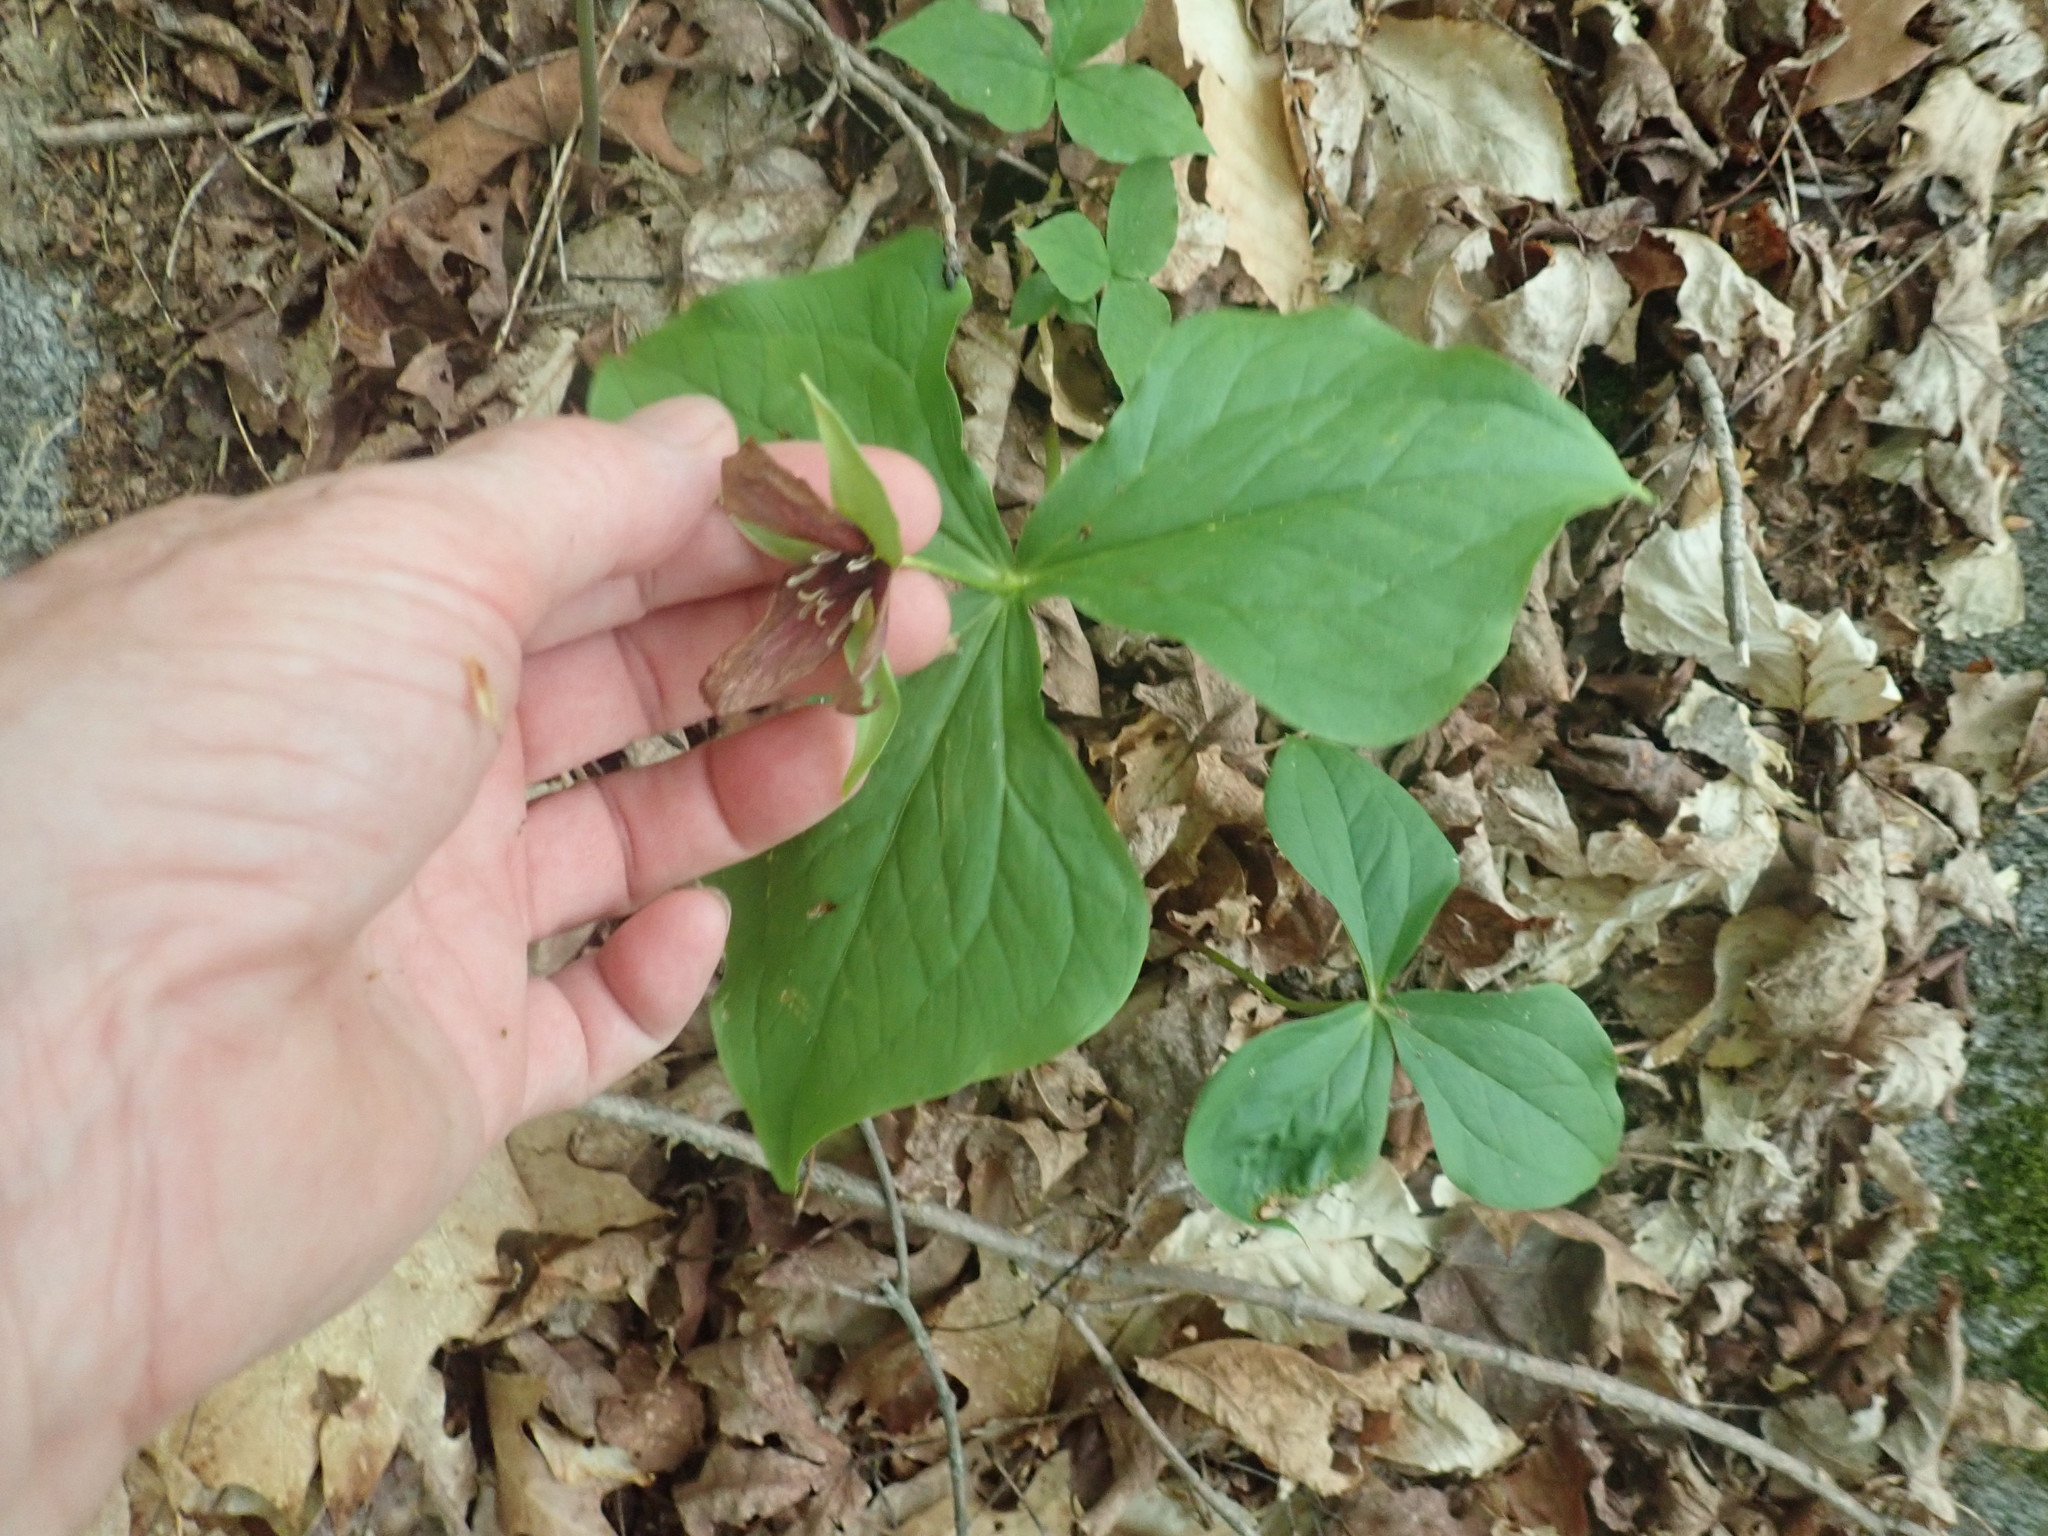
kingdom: Plantae
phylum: Tracheophyta
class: Liliopsida
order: Liliales
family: Melanthiaceae
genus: Trillium
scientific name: Trillium erectum
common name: Purple trillium
